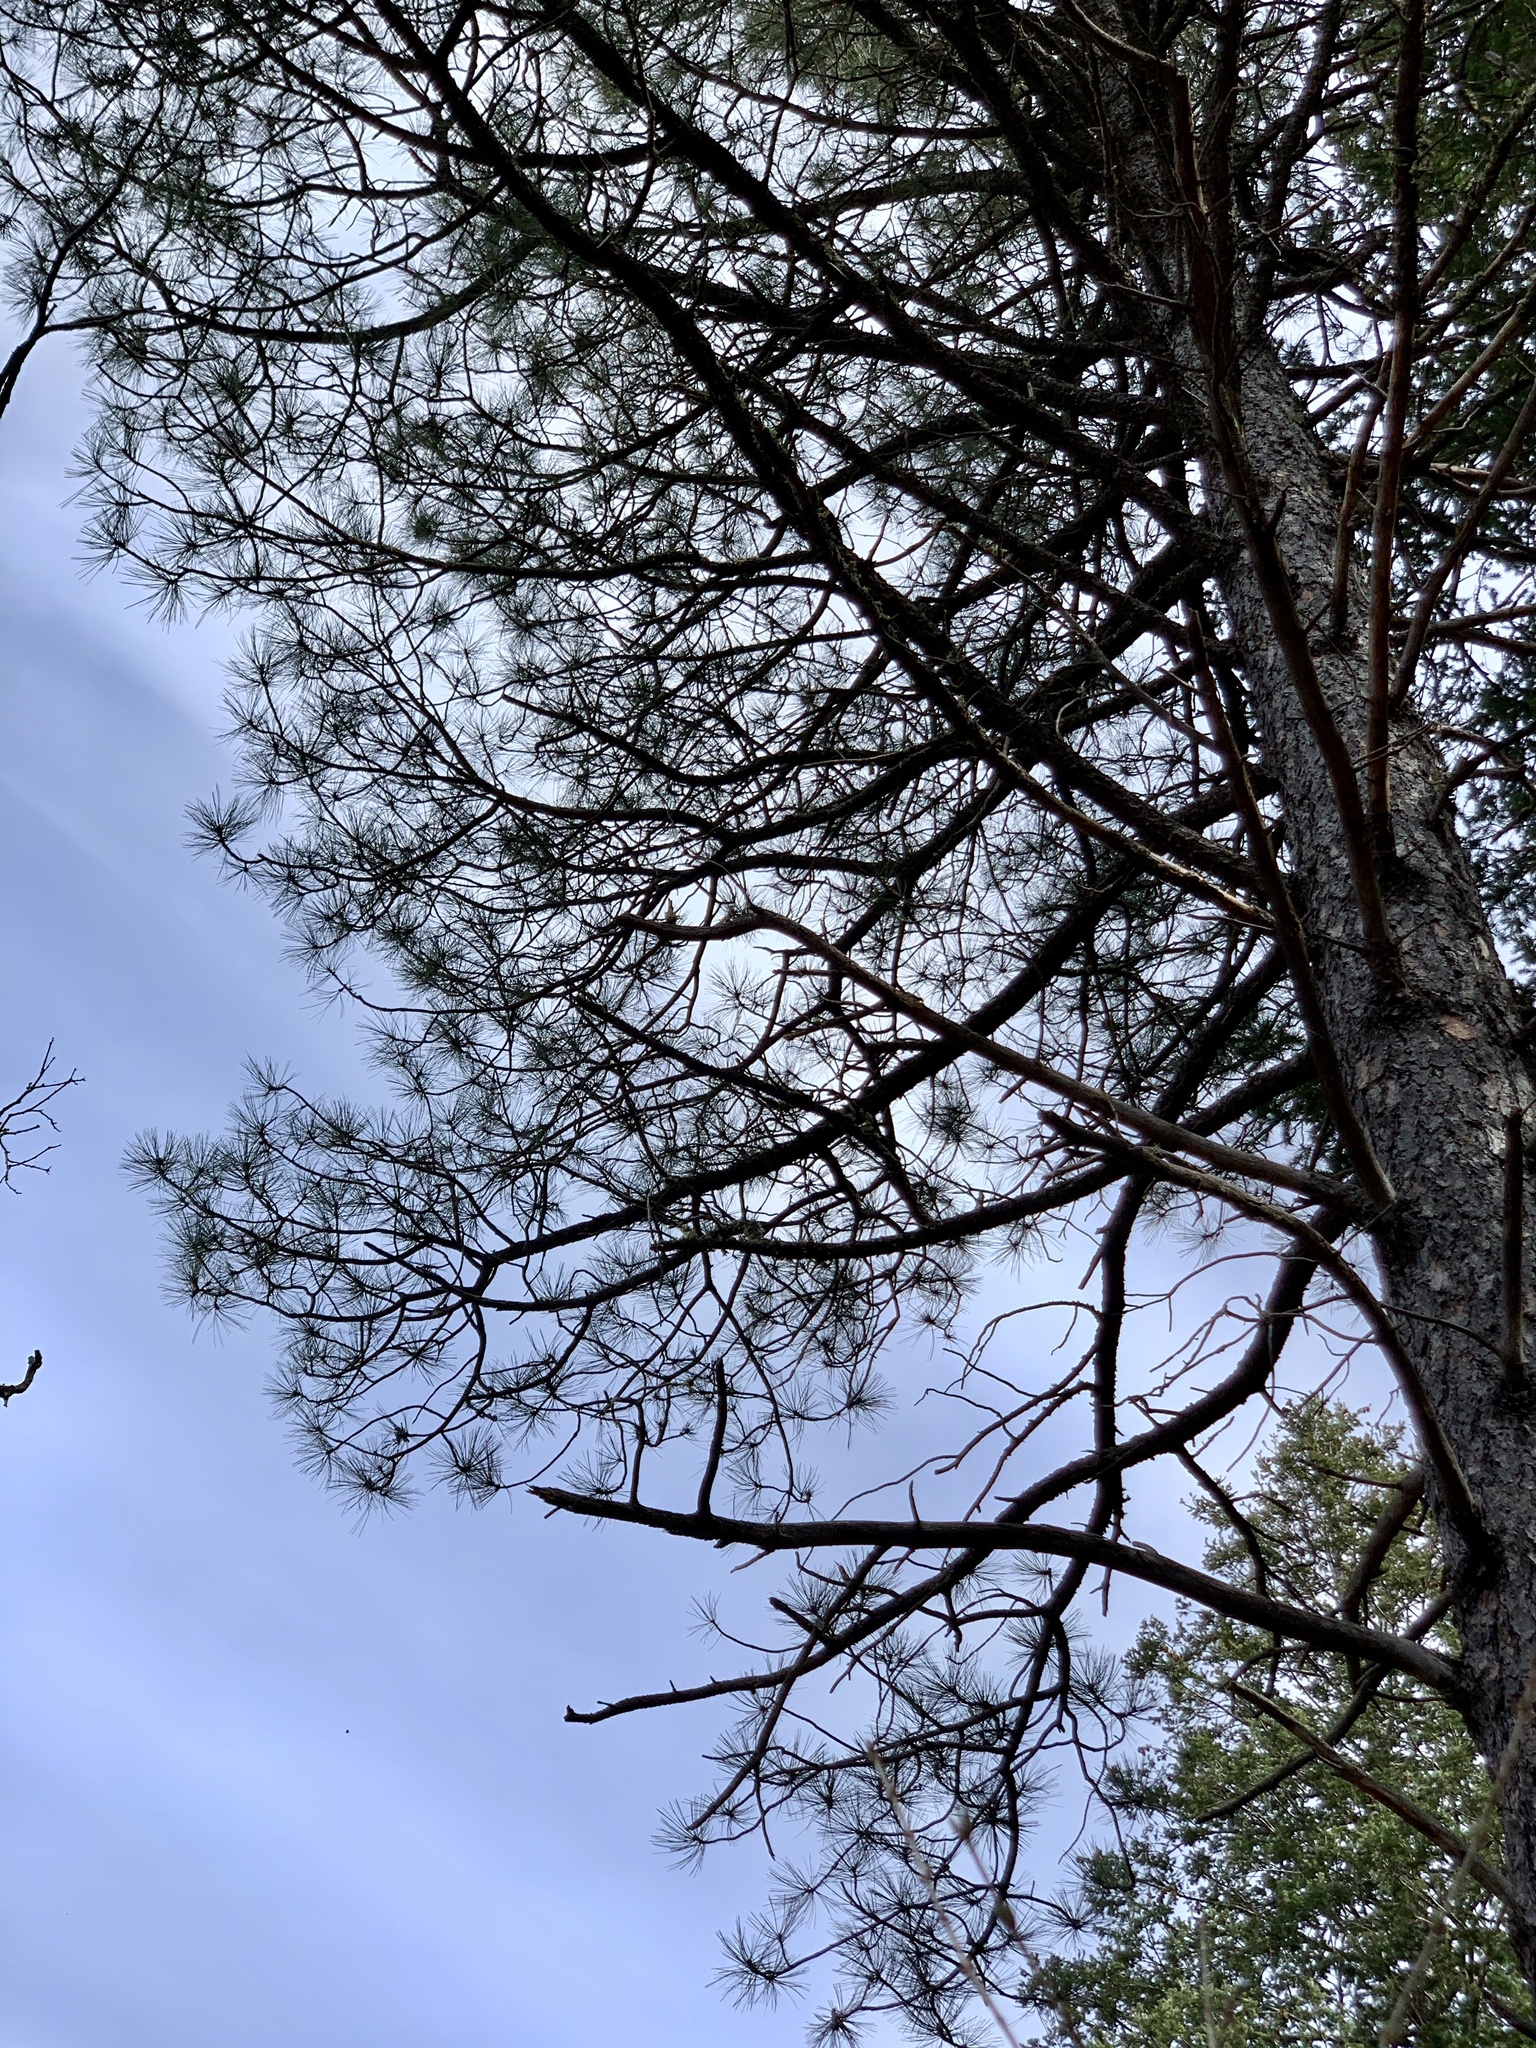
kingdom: Plantae
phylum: Tracheophyta
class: Pinopsida
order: Pinales
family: Pinaceae
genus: Pinus
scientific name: Pinus ponderosa
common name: Western yellow-pine
